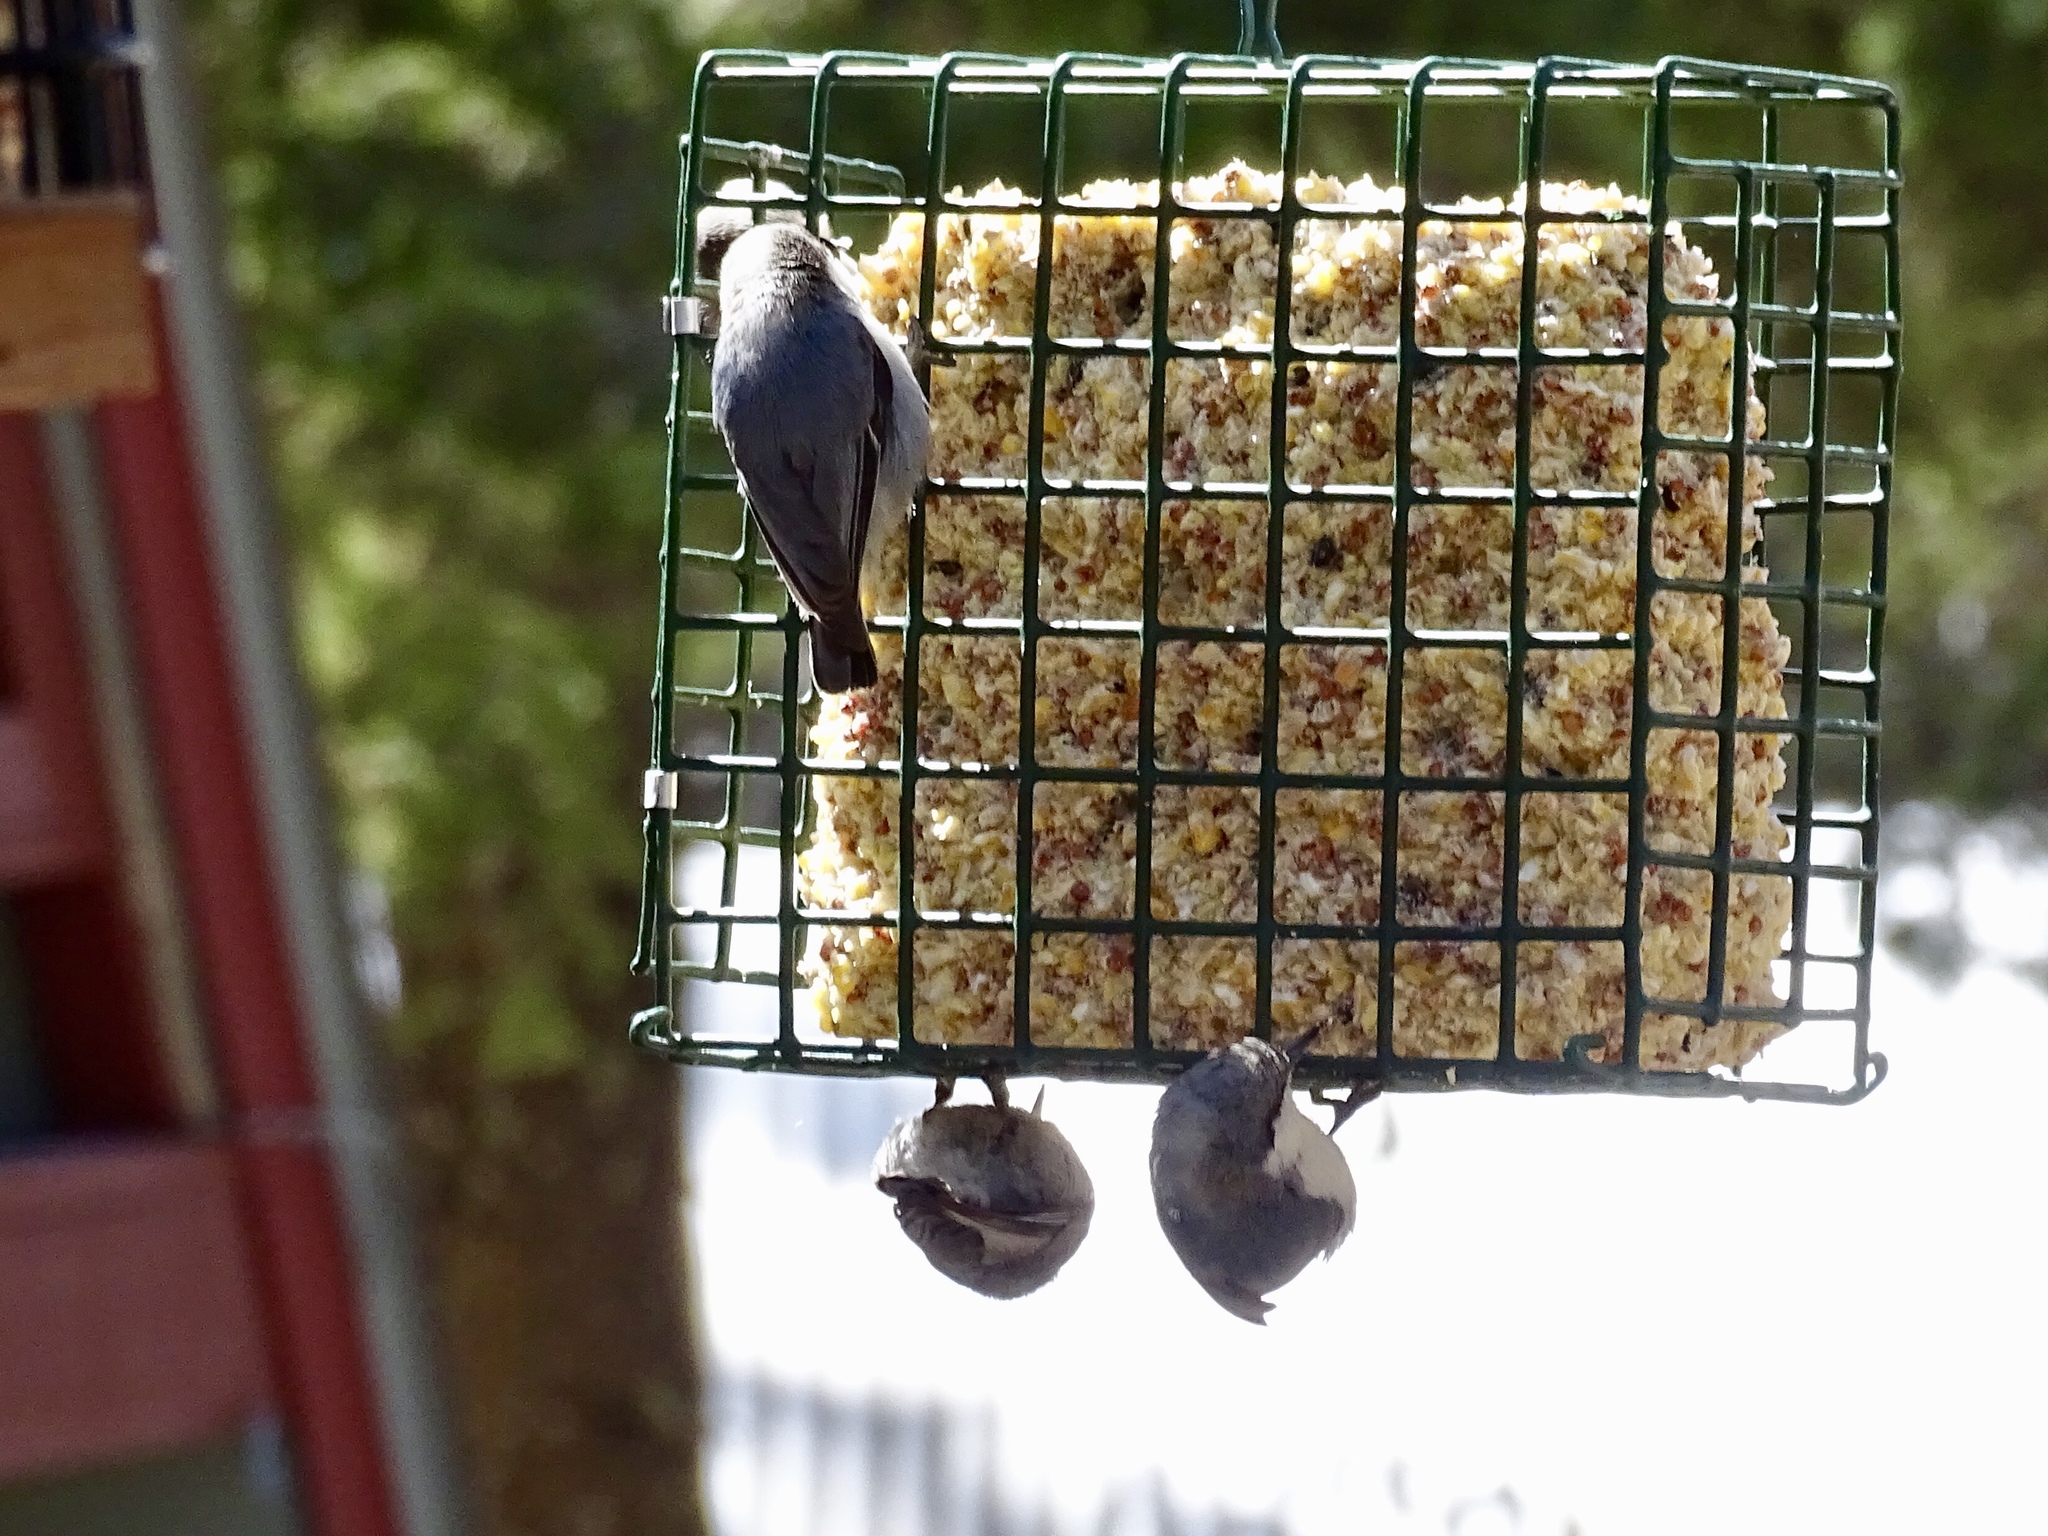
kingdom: Animalia
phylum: Chordata
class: Aves
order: Passeriformes
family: Sittidae
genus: Sitta
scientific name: Sitta pygmaea
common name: Pygmy nuthatch
